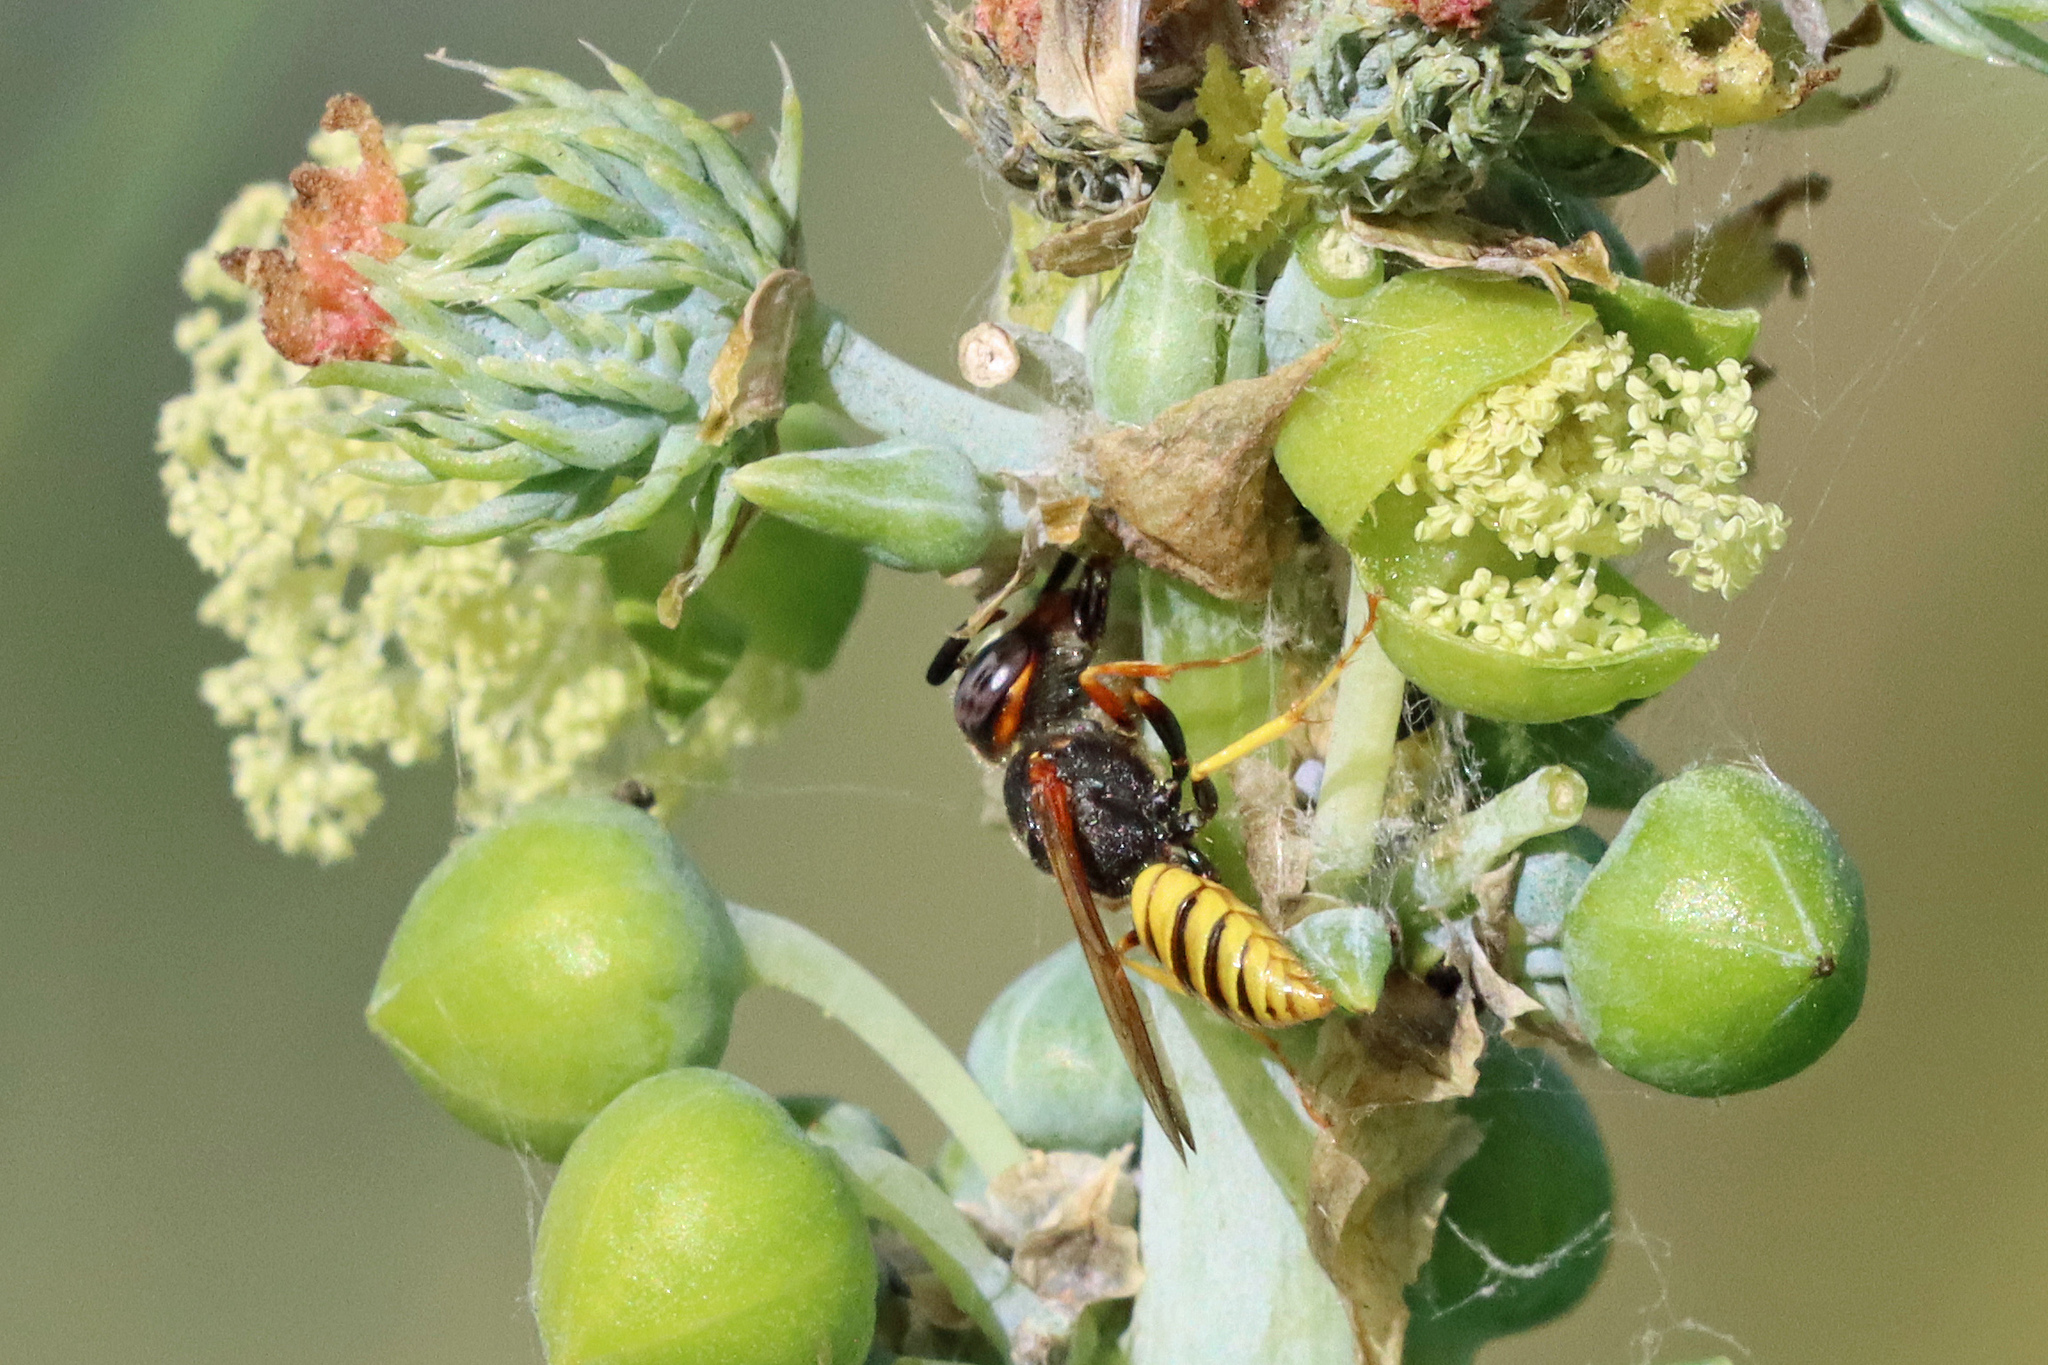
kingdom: Animalia
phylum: Arthropoda
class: Insecta
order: Hymenoptera
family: Crabronidae
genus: Philanthus
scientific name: Philanthus triangulum
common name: Bee wolf
